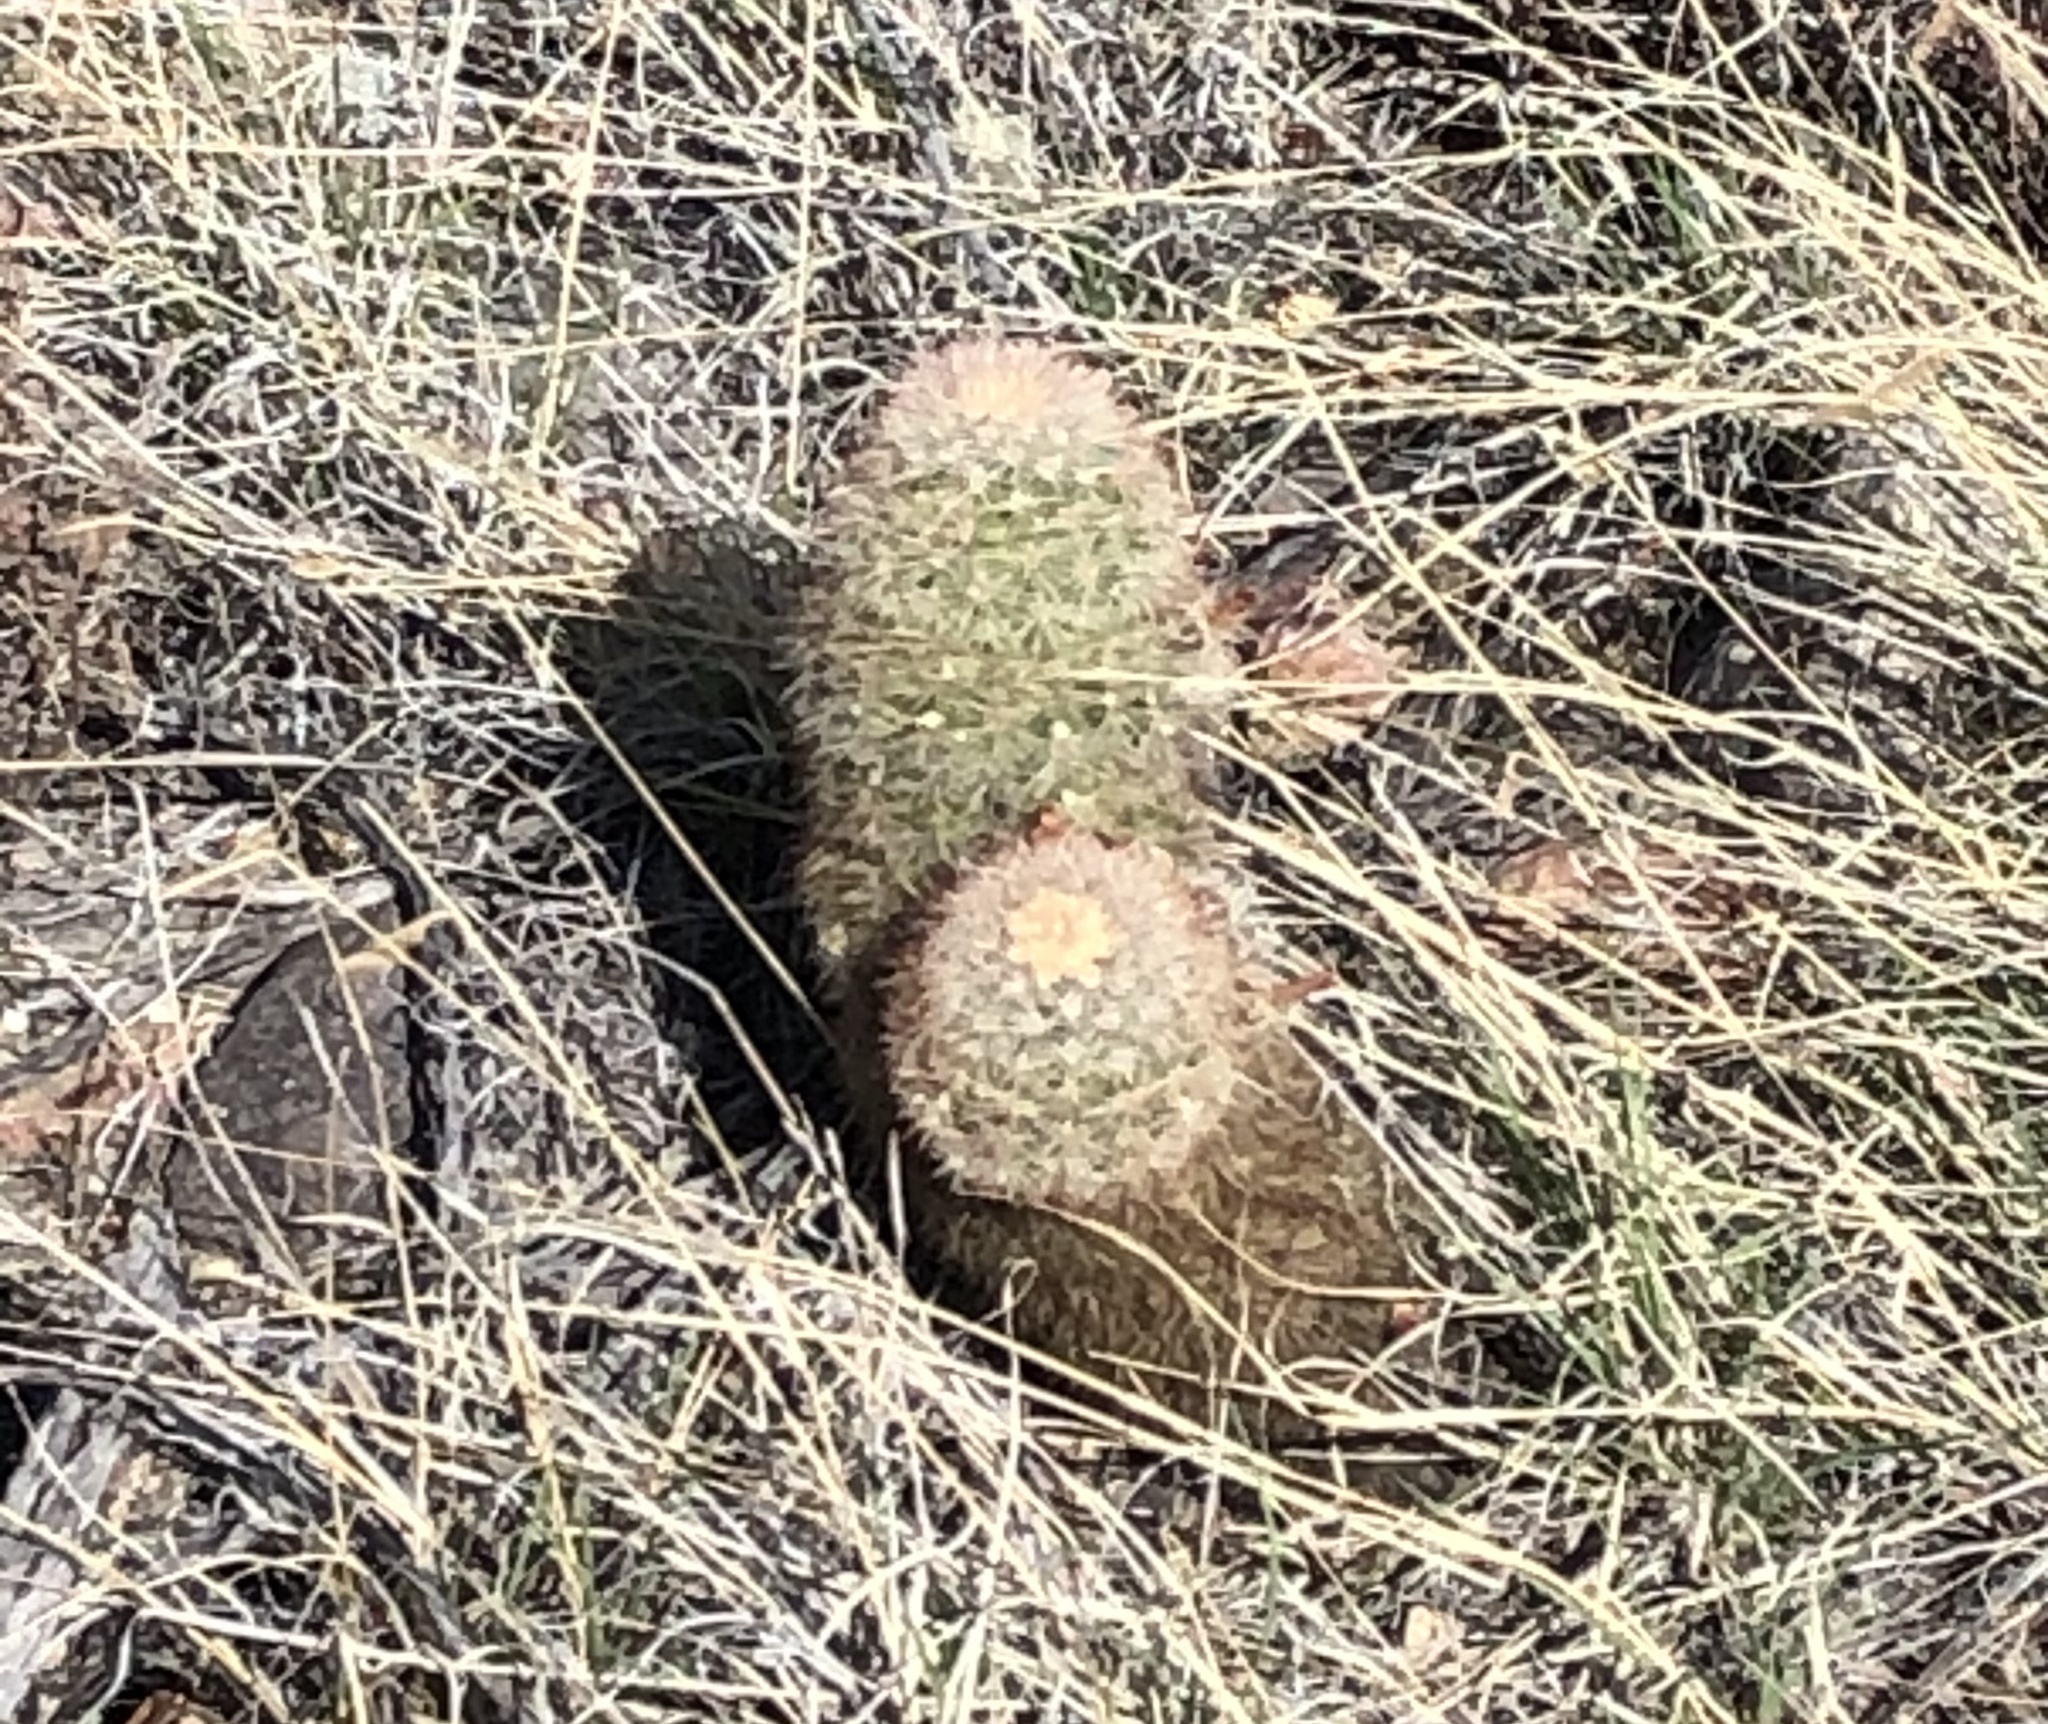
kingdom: Plantae
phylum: Tracheophyta
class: Magnoliopsida
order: Caryophyllales
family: Cactaceae
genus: Echinocereus
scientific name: Echinocereus russanthus
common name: Brownspine hedgehog cactus
